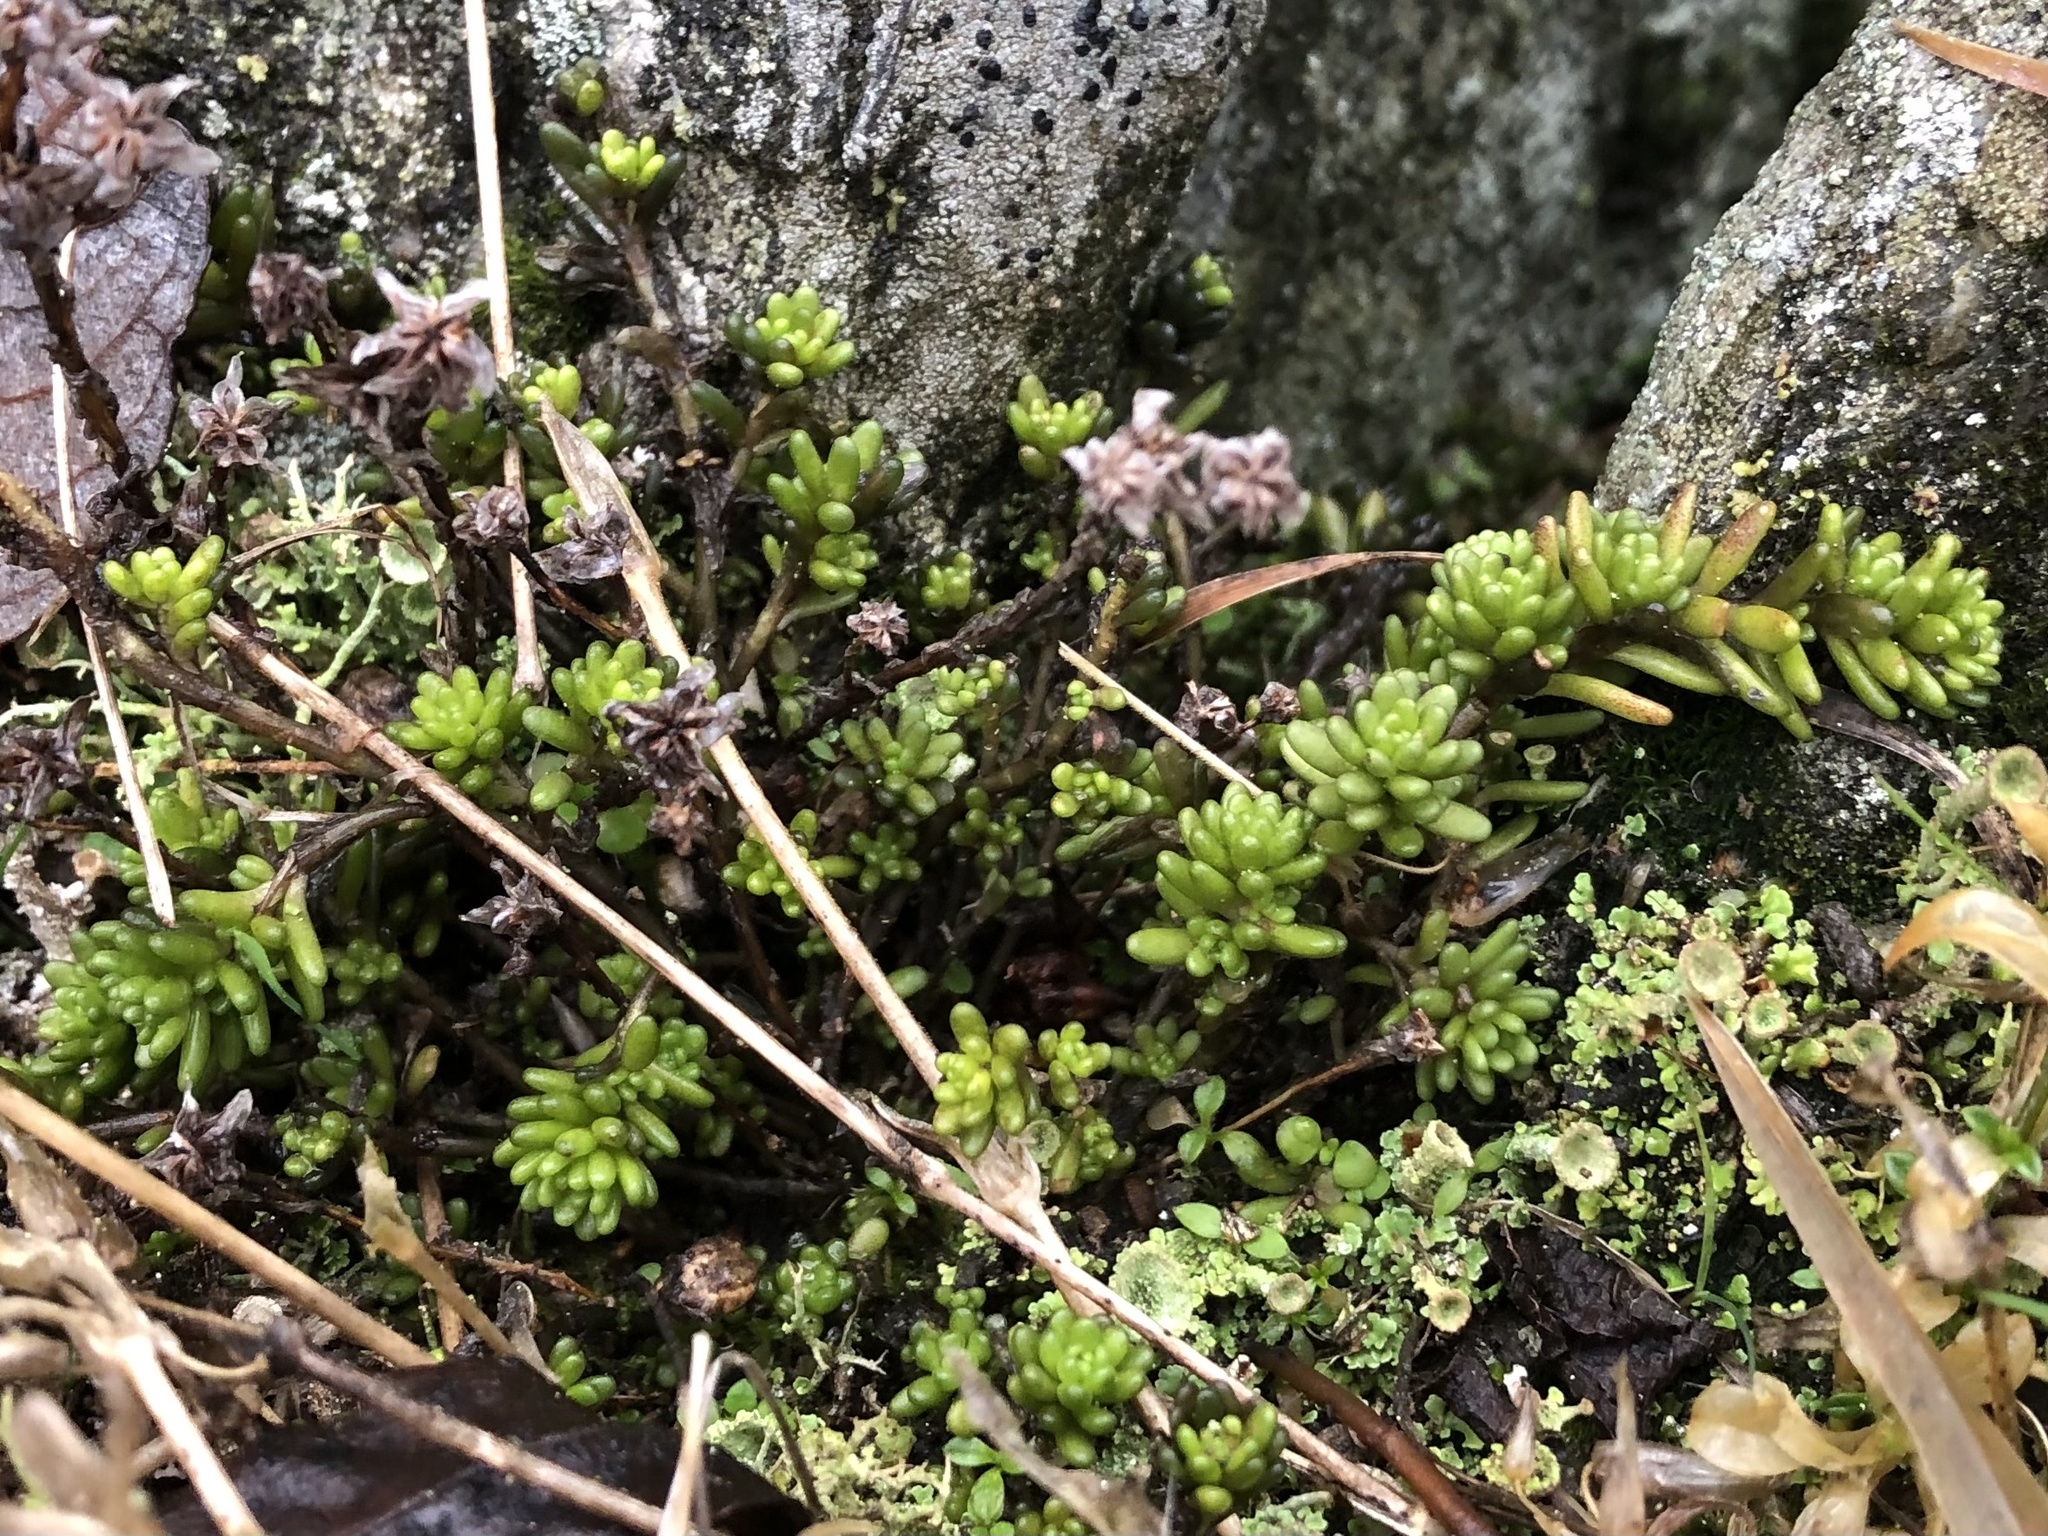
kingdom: Plantae
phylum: Tracheophyta
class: Magnoliopsida
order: Saxifragales
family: Crassulaceae
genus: Sedum
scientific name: Sedum alpestre
